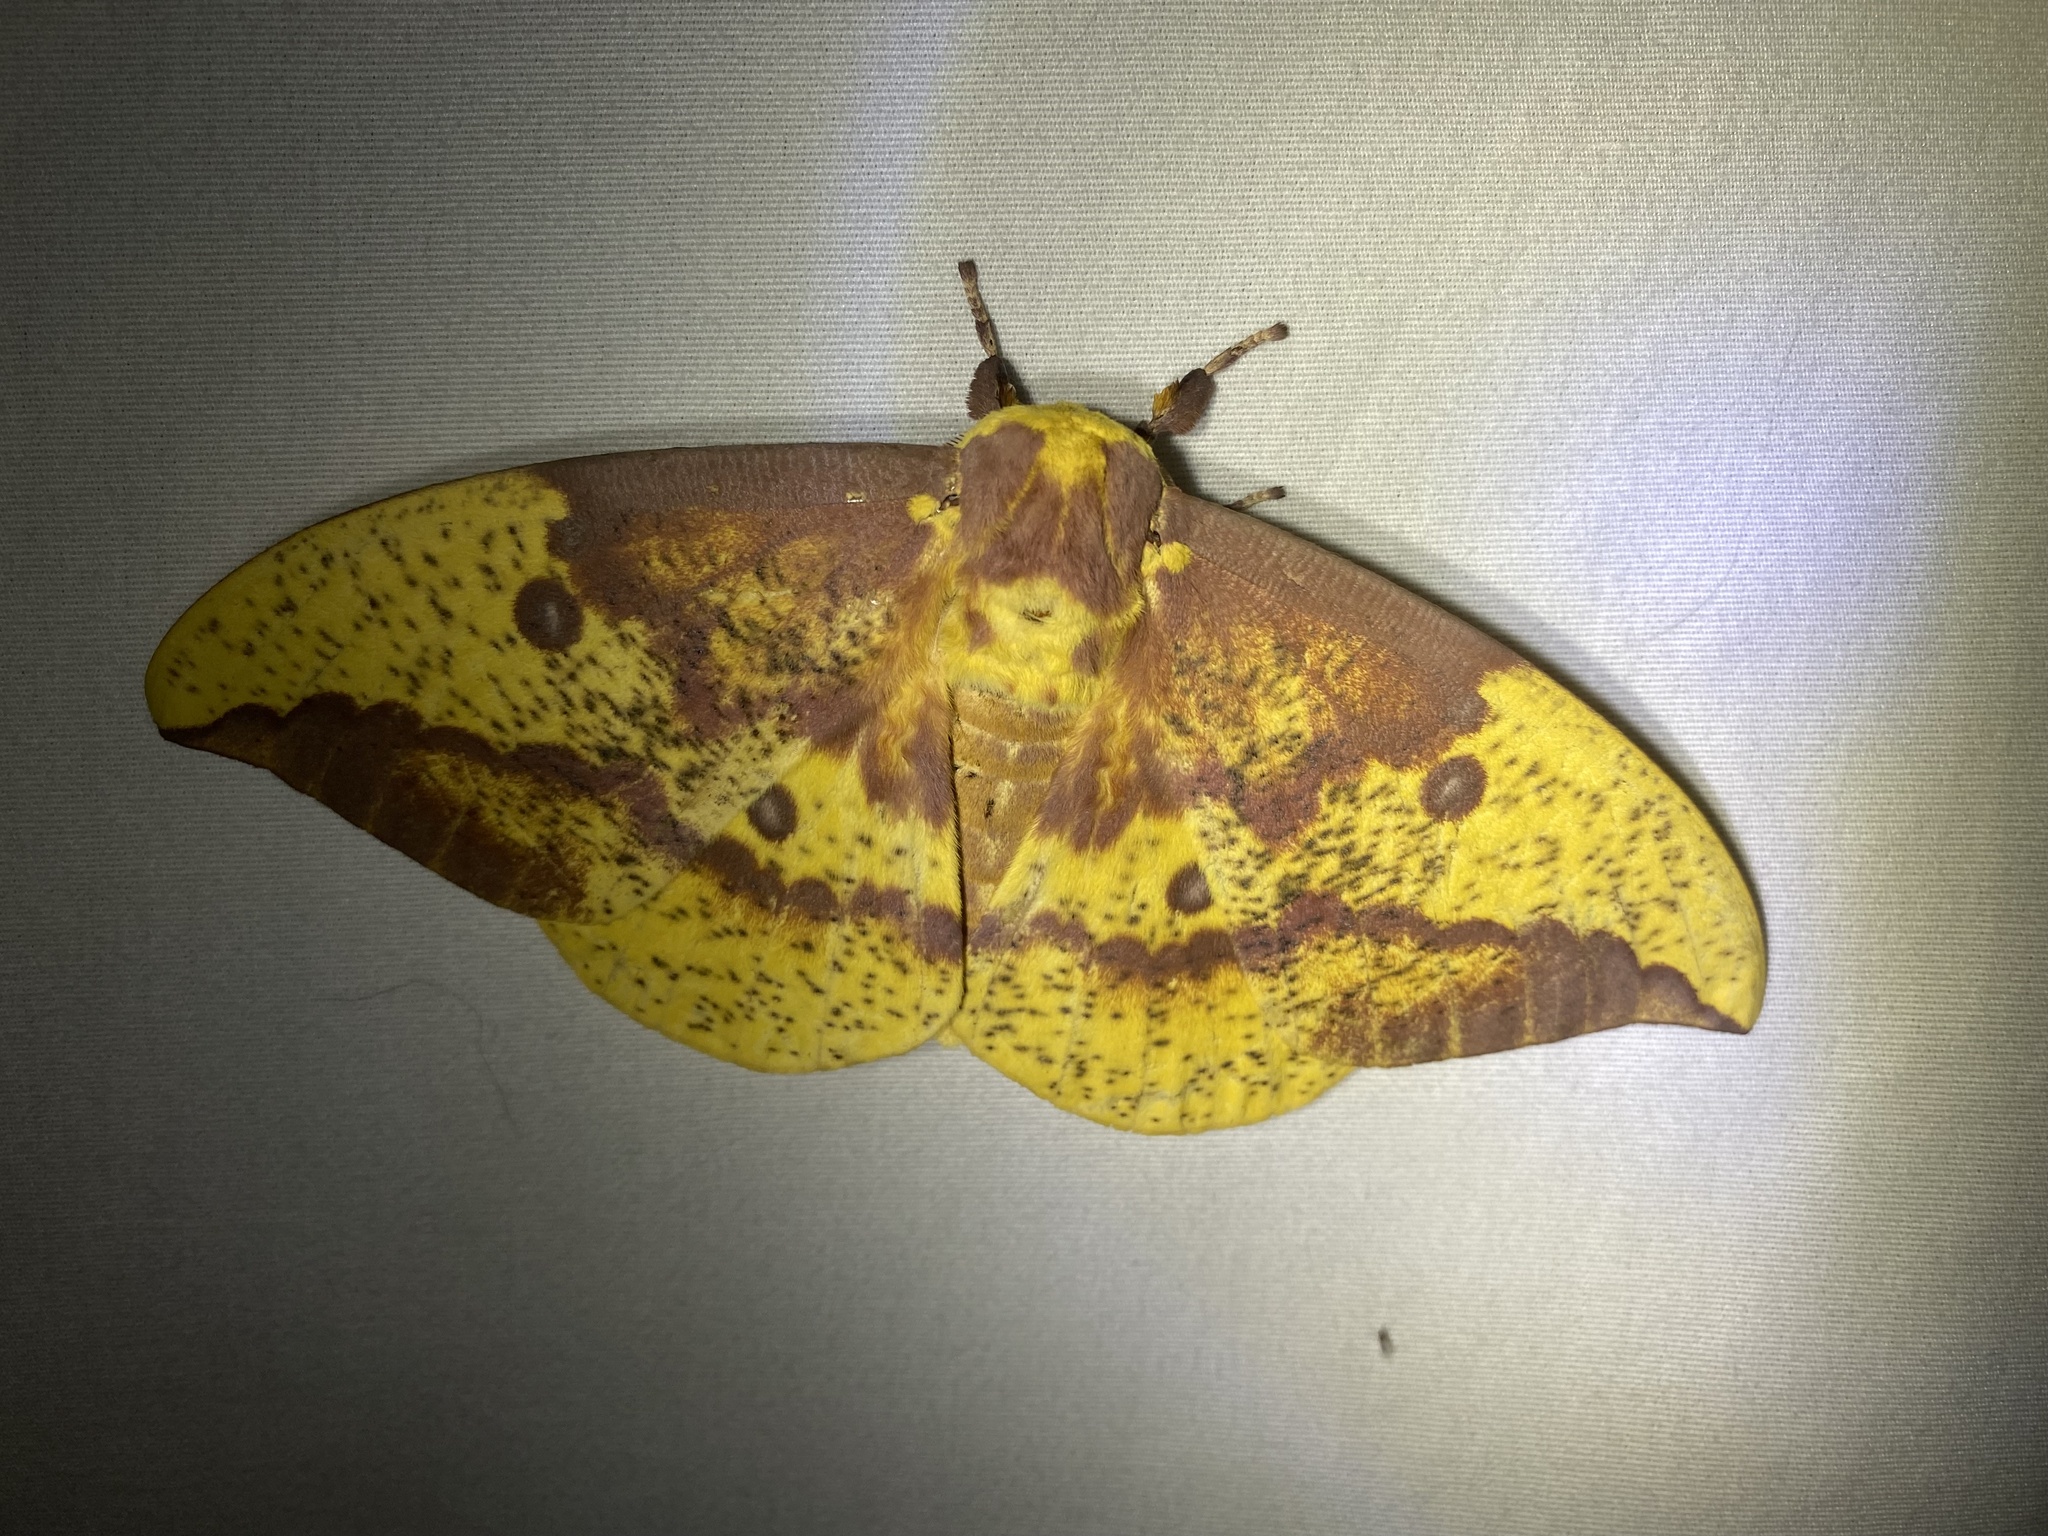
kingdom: Animalia
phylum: Arthropoda
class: Insecta
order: Lepidoptera
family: Saturniidae
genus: Eacles
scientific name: Eacles imperialis
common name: Imperial moth
